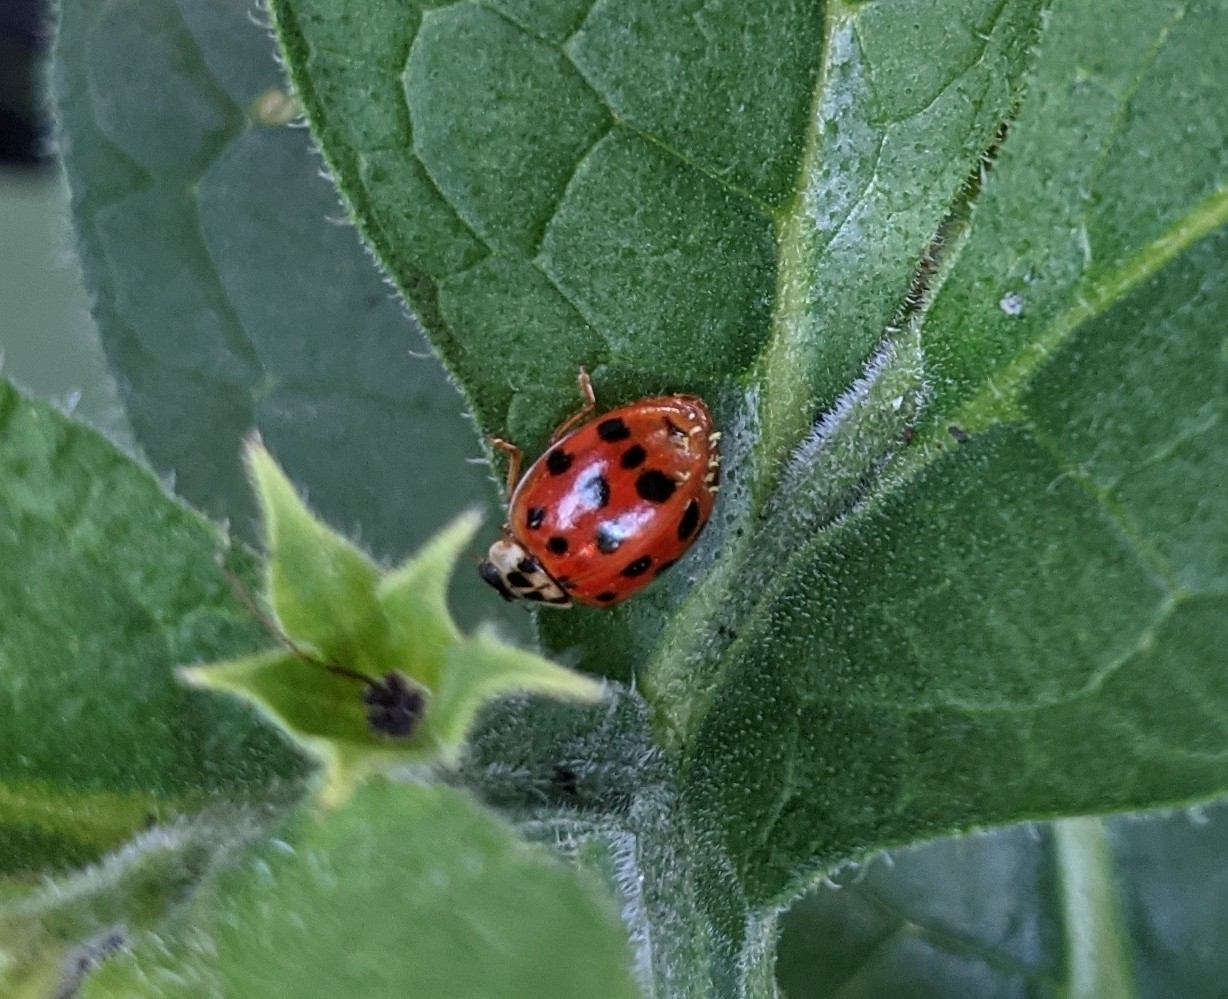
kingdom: Animalia
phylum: Arthropoda
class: Insecta
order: Coleoptera
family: Coccinellidae
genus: Harmonia
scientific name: Harmonia axyridis
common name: Harlequin ladybird
